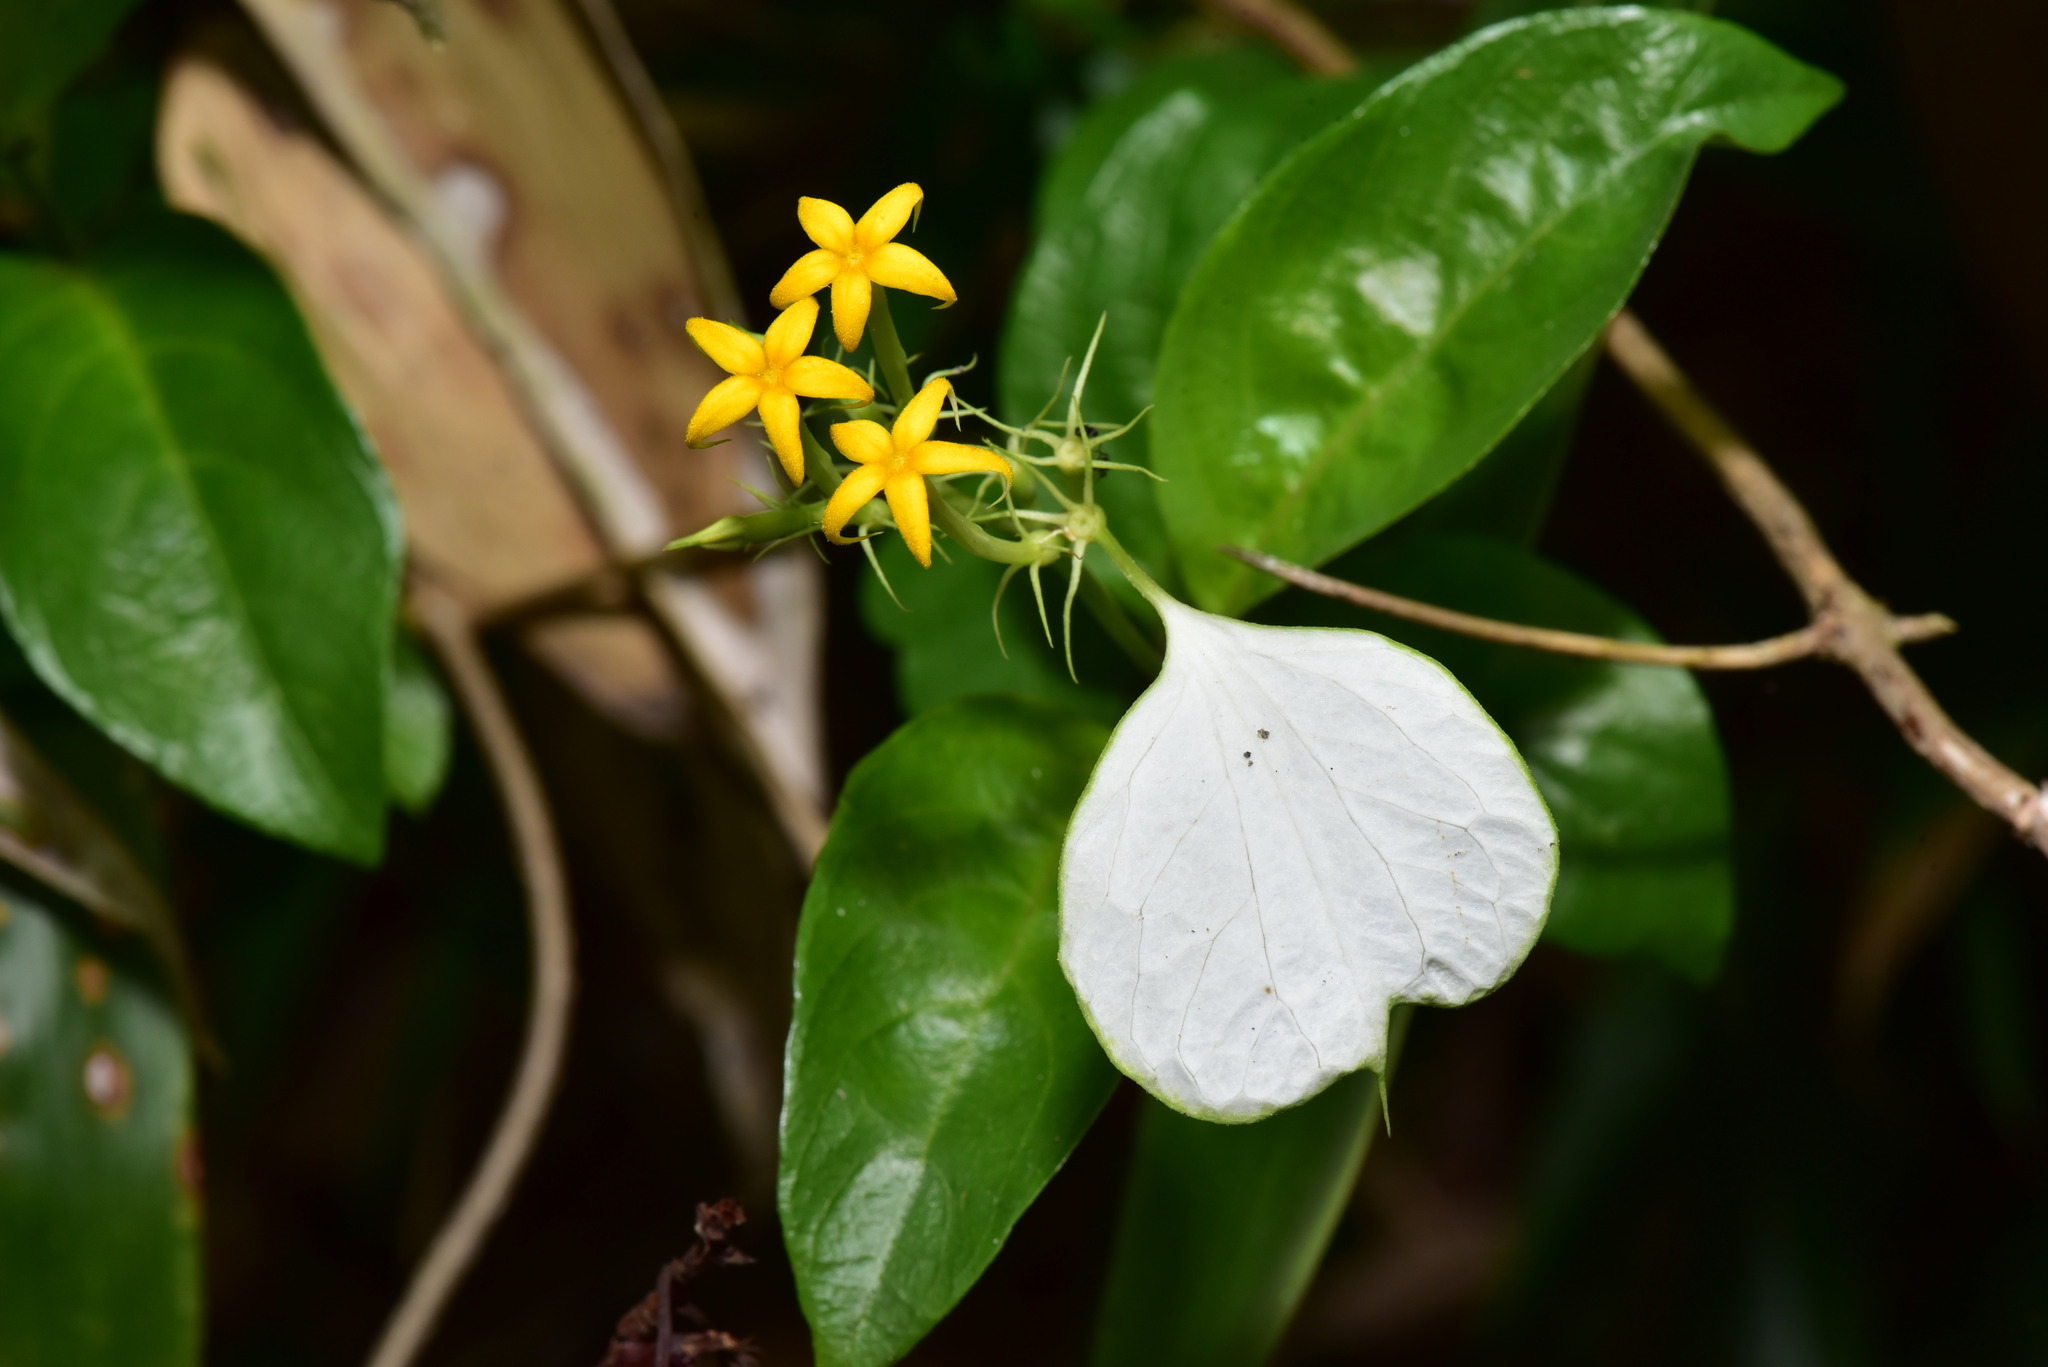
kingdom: Plantae
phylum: Tracheophyta
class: Magnoliopsida
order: Gentianales
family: Rubiaceae
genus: Mussaenda
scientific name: Mussaenda formosana
